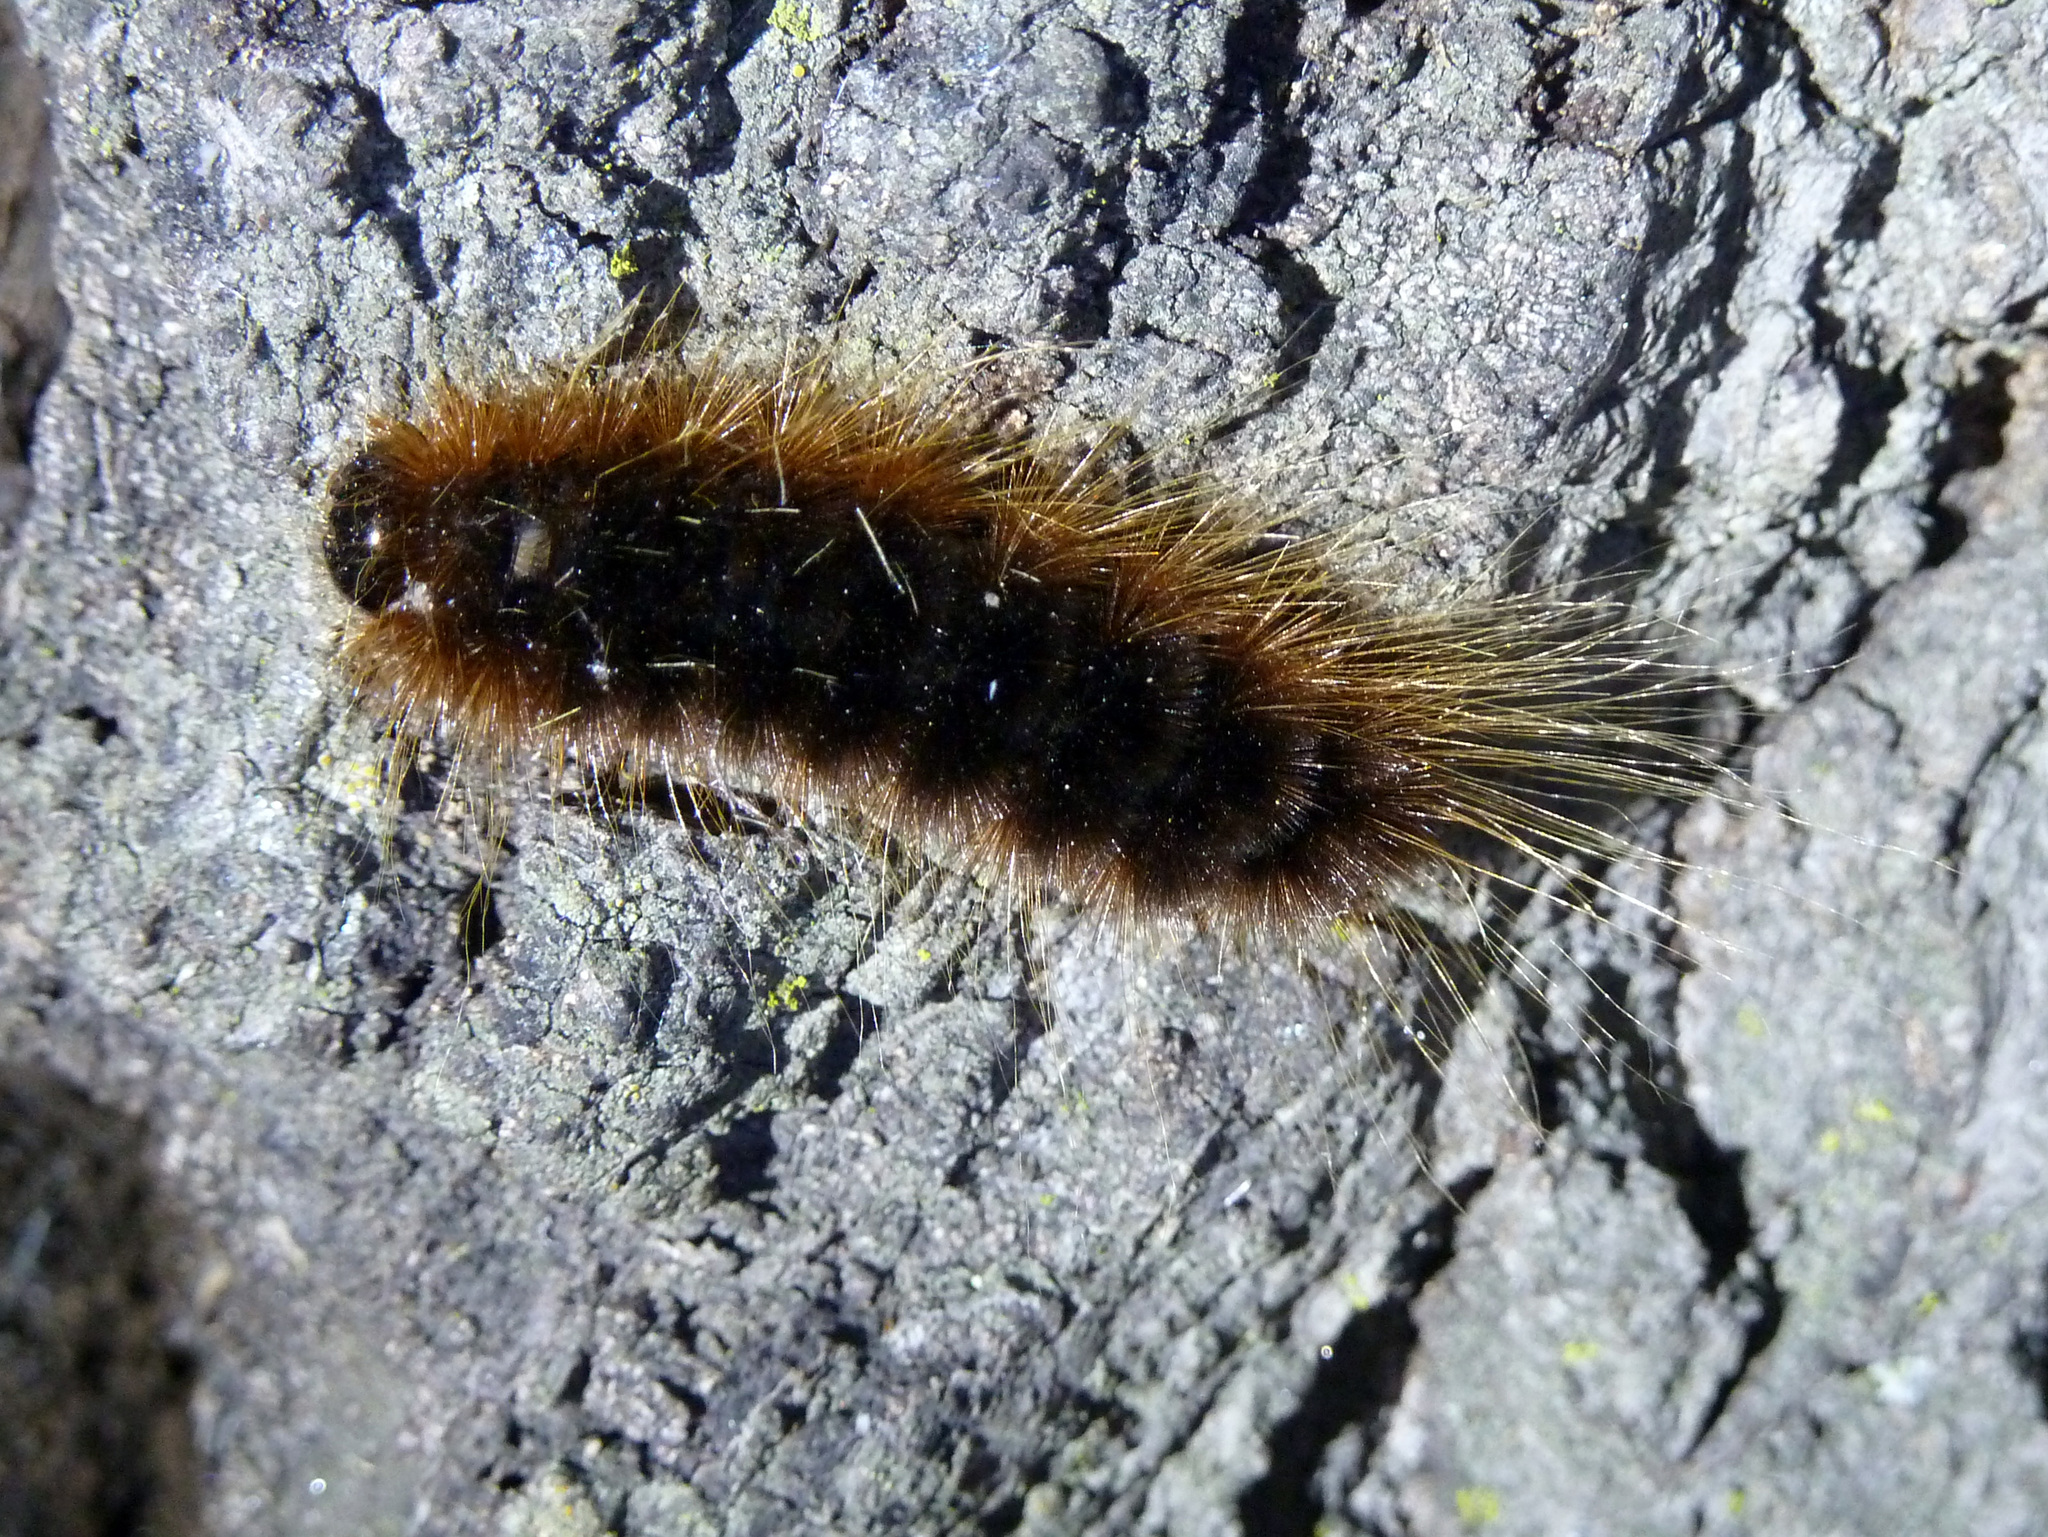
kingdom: Animalia
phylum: Arthropoda
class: Insecta
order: Lepidoptera
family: Erebidae
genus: Hemihyalea
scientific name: Hemihyalea edwardsii
